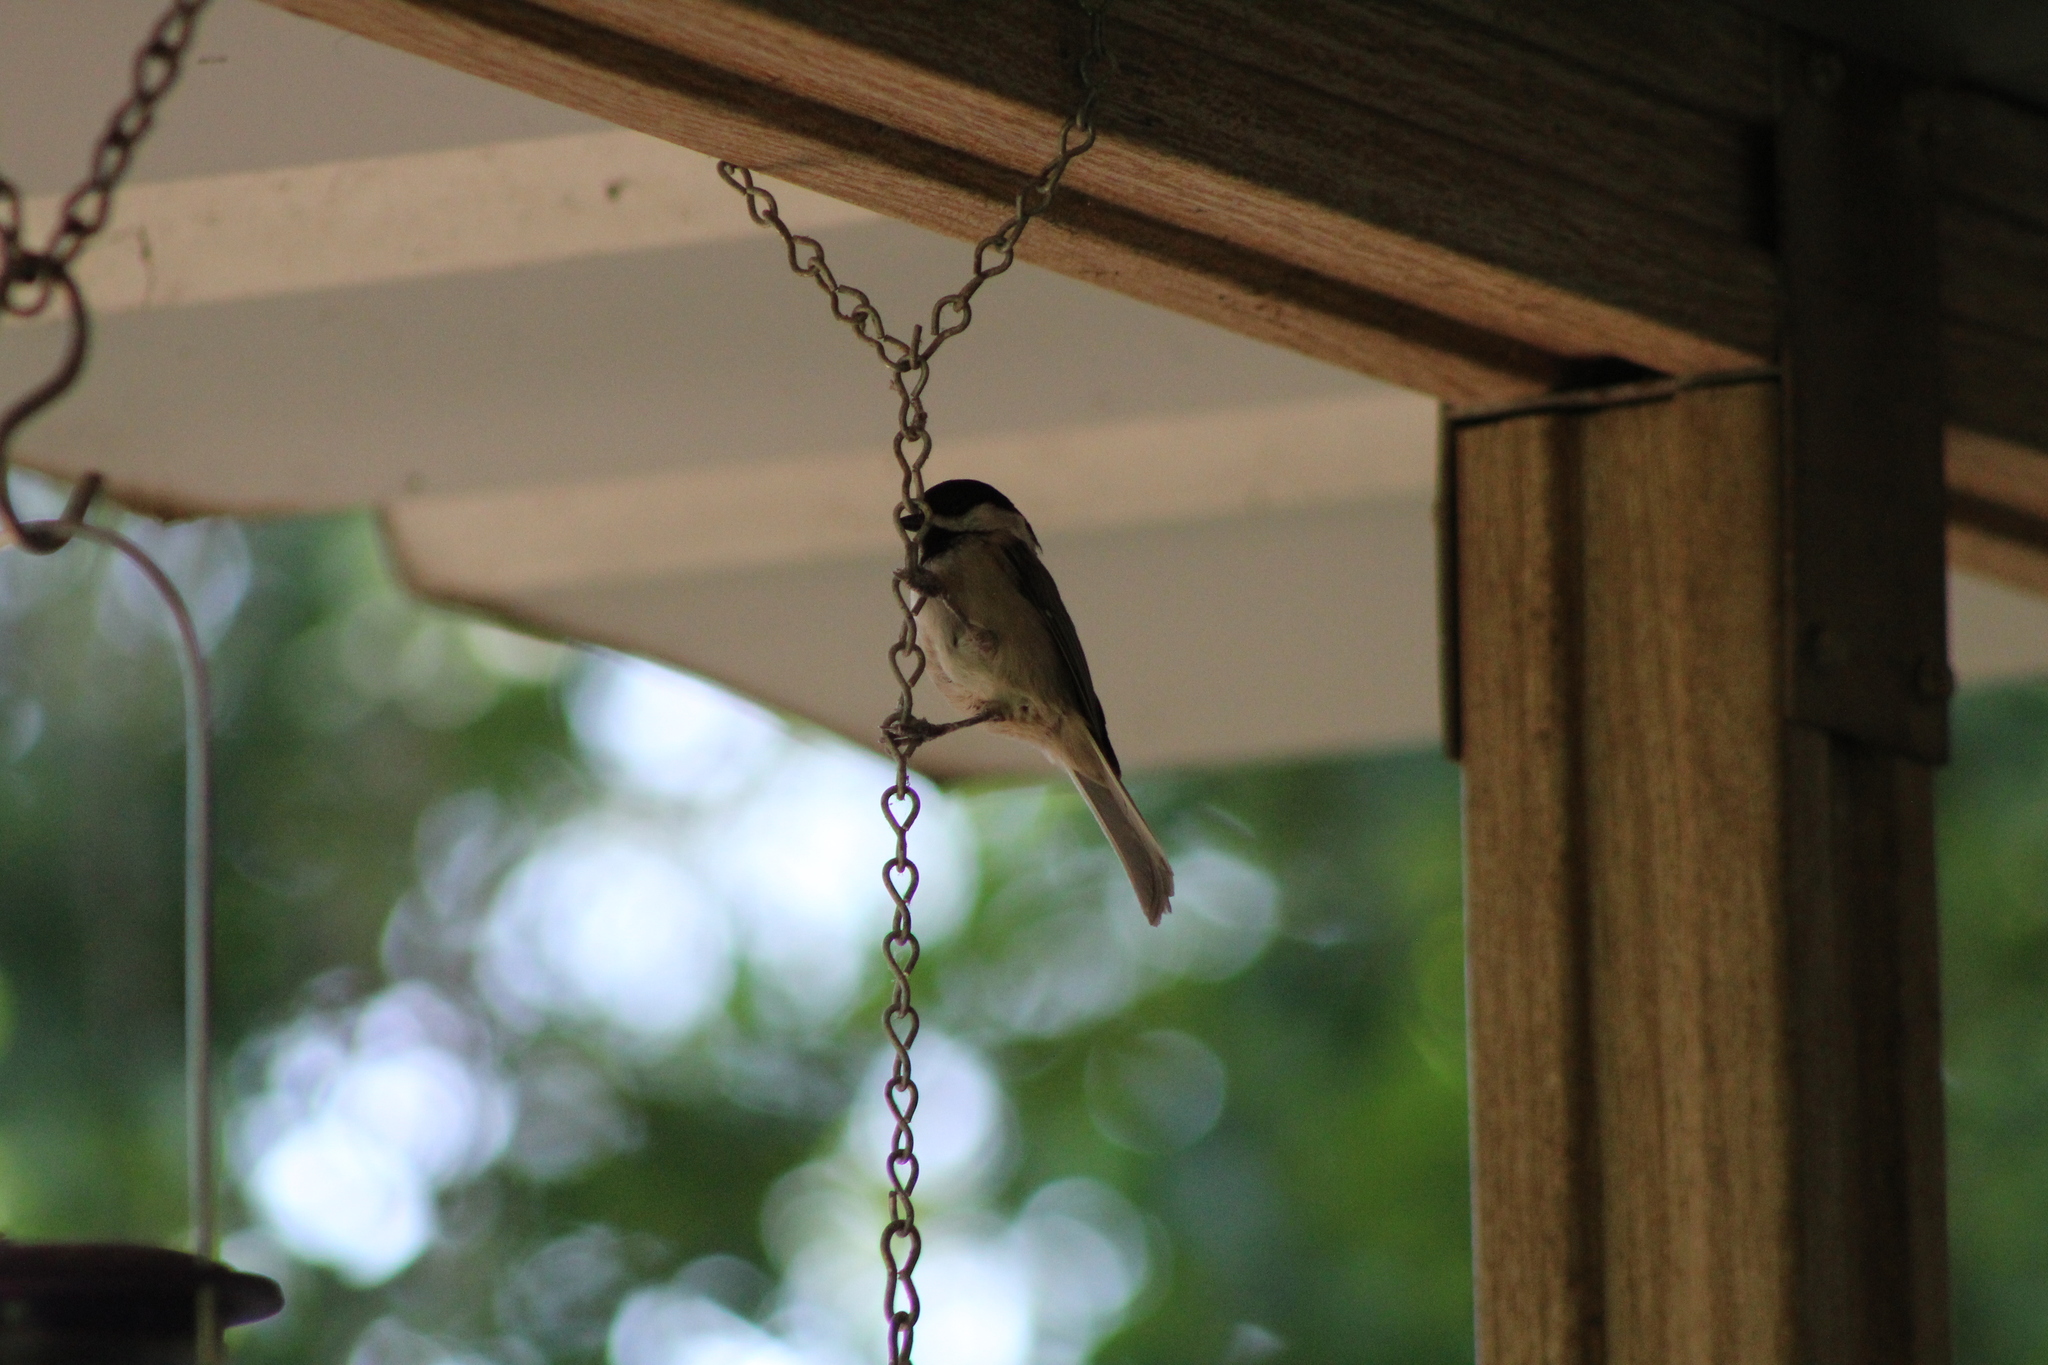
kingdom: Animalia
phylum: Chordata
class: Aves
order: Passeriformes
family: Paridae
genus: Poecile
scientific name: Poecile carolinensis
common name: Carolina chickadee
